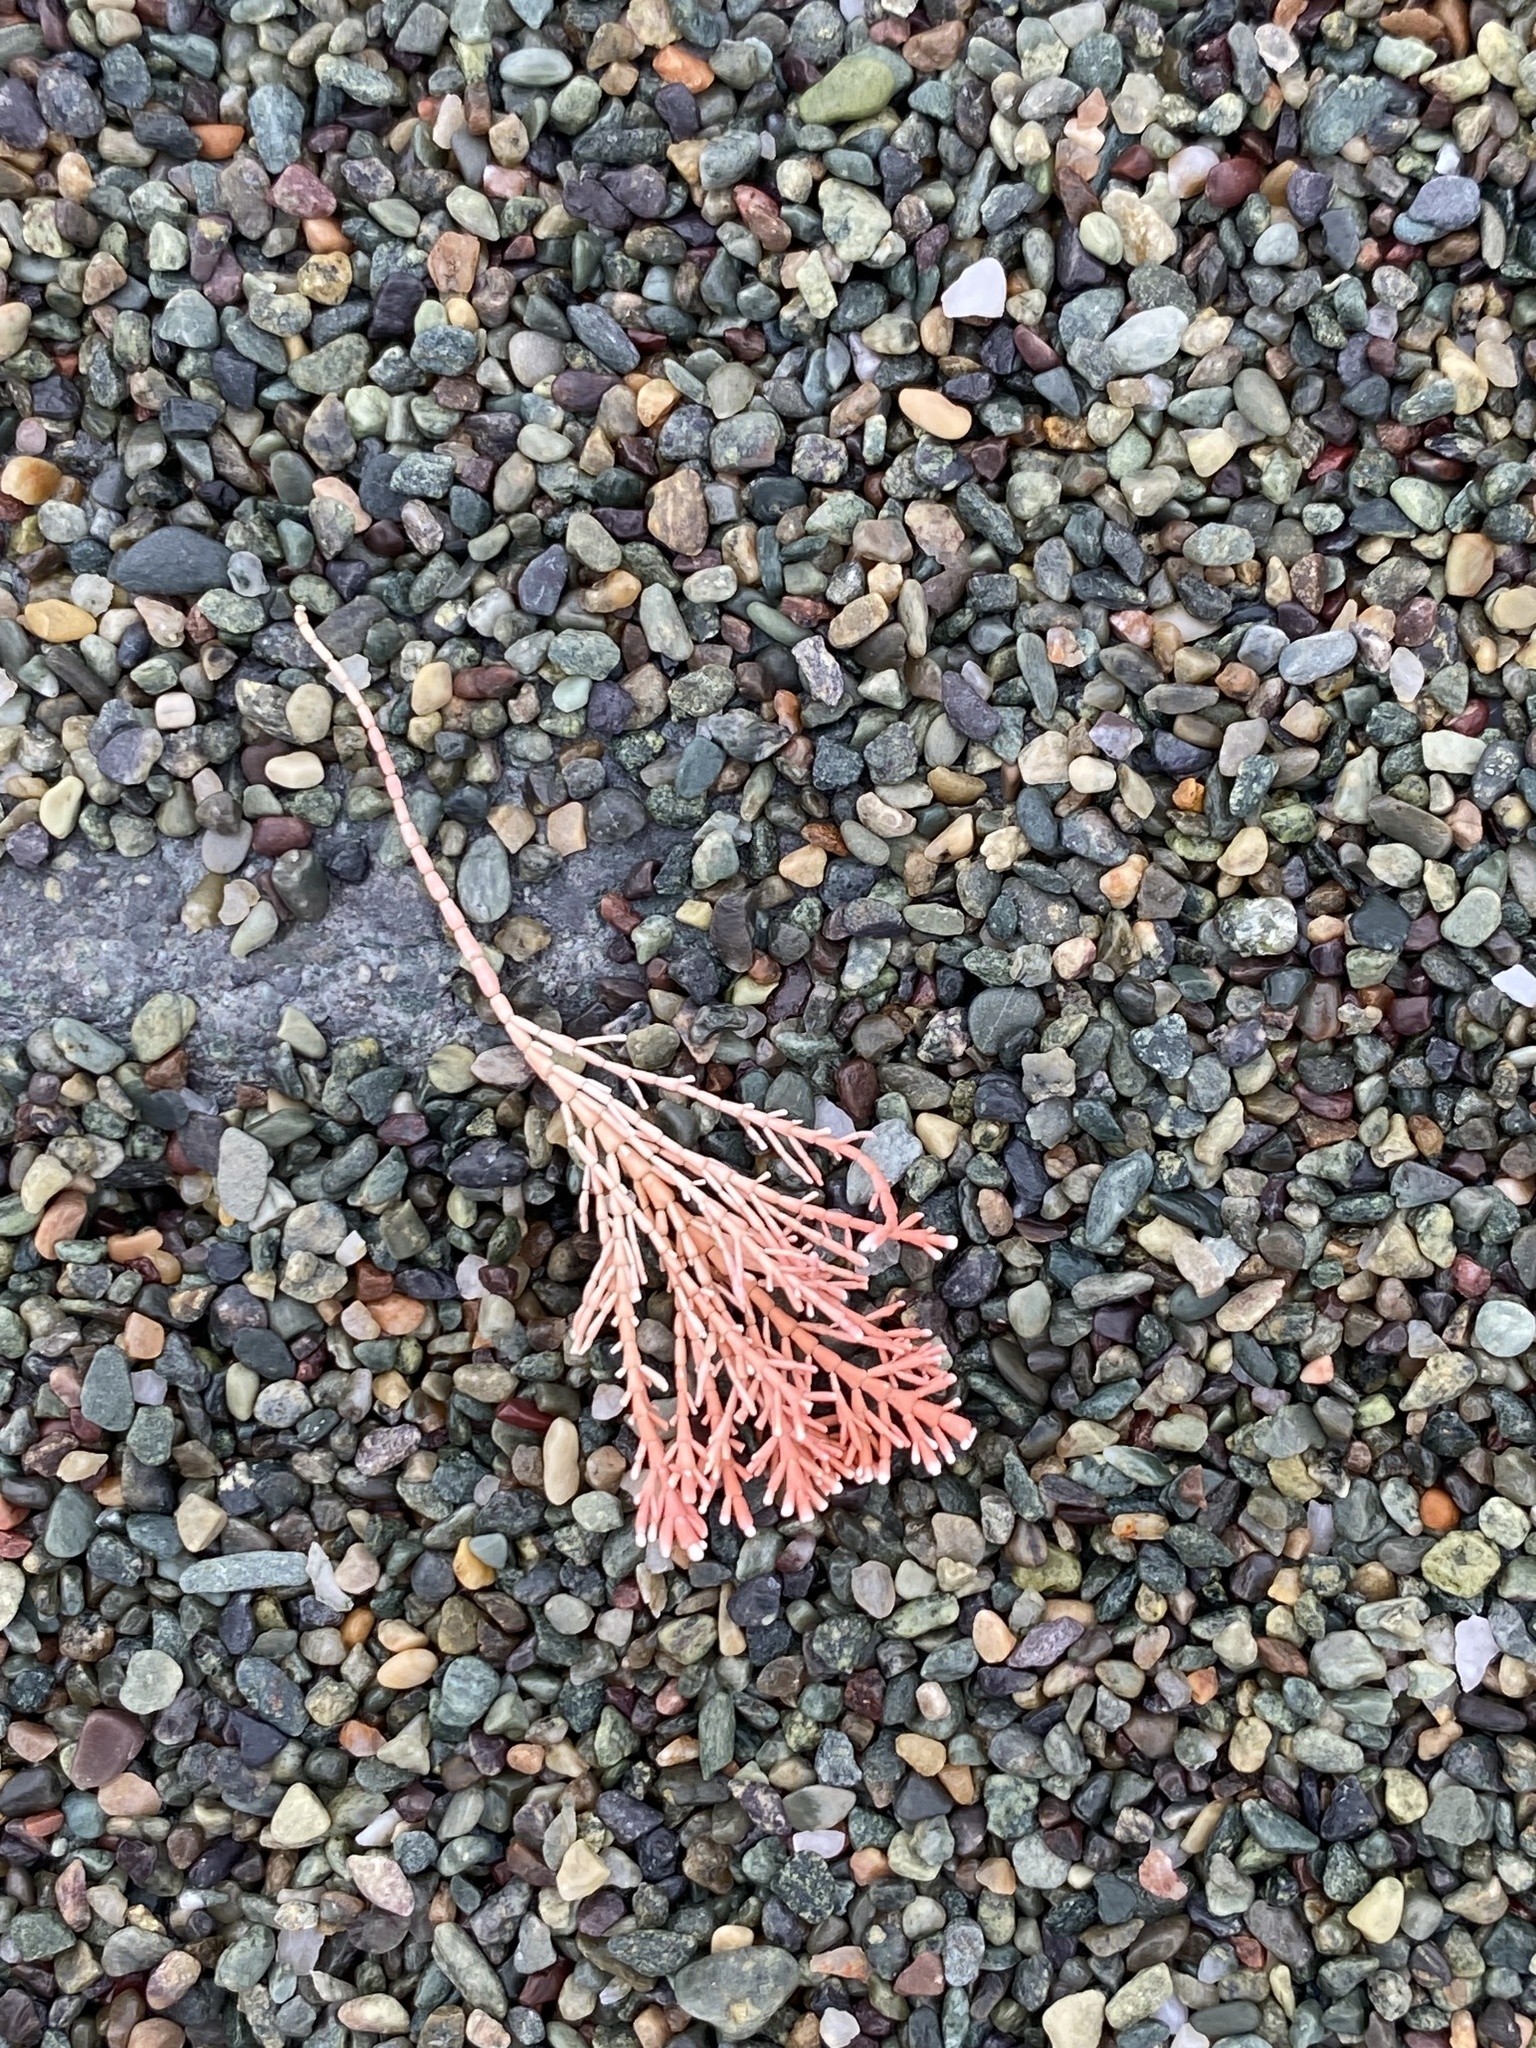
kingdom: Plantae
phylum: Rhodophyta
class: Florideophyceae
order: Corallinales
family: Corallinaceae
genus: Corallina
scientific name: Corallina officinalis
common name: Coral weed
